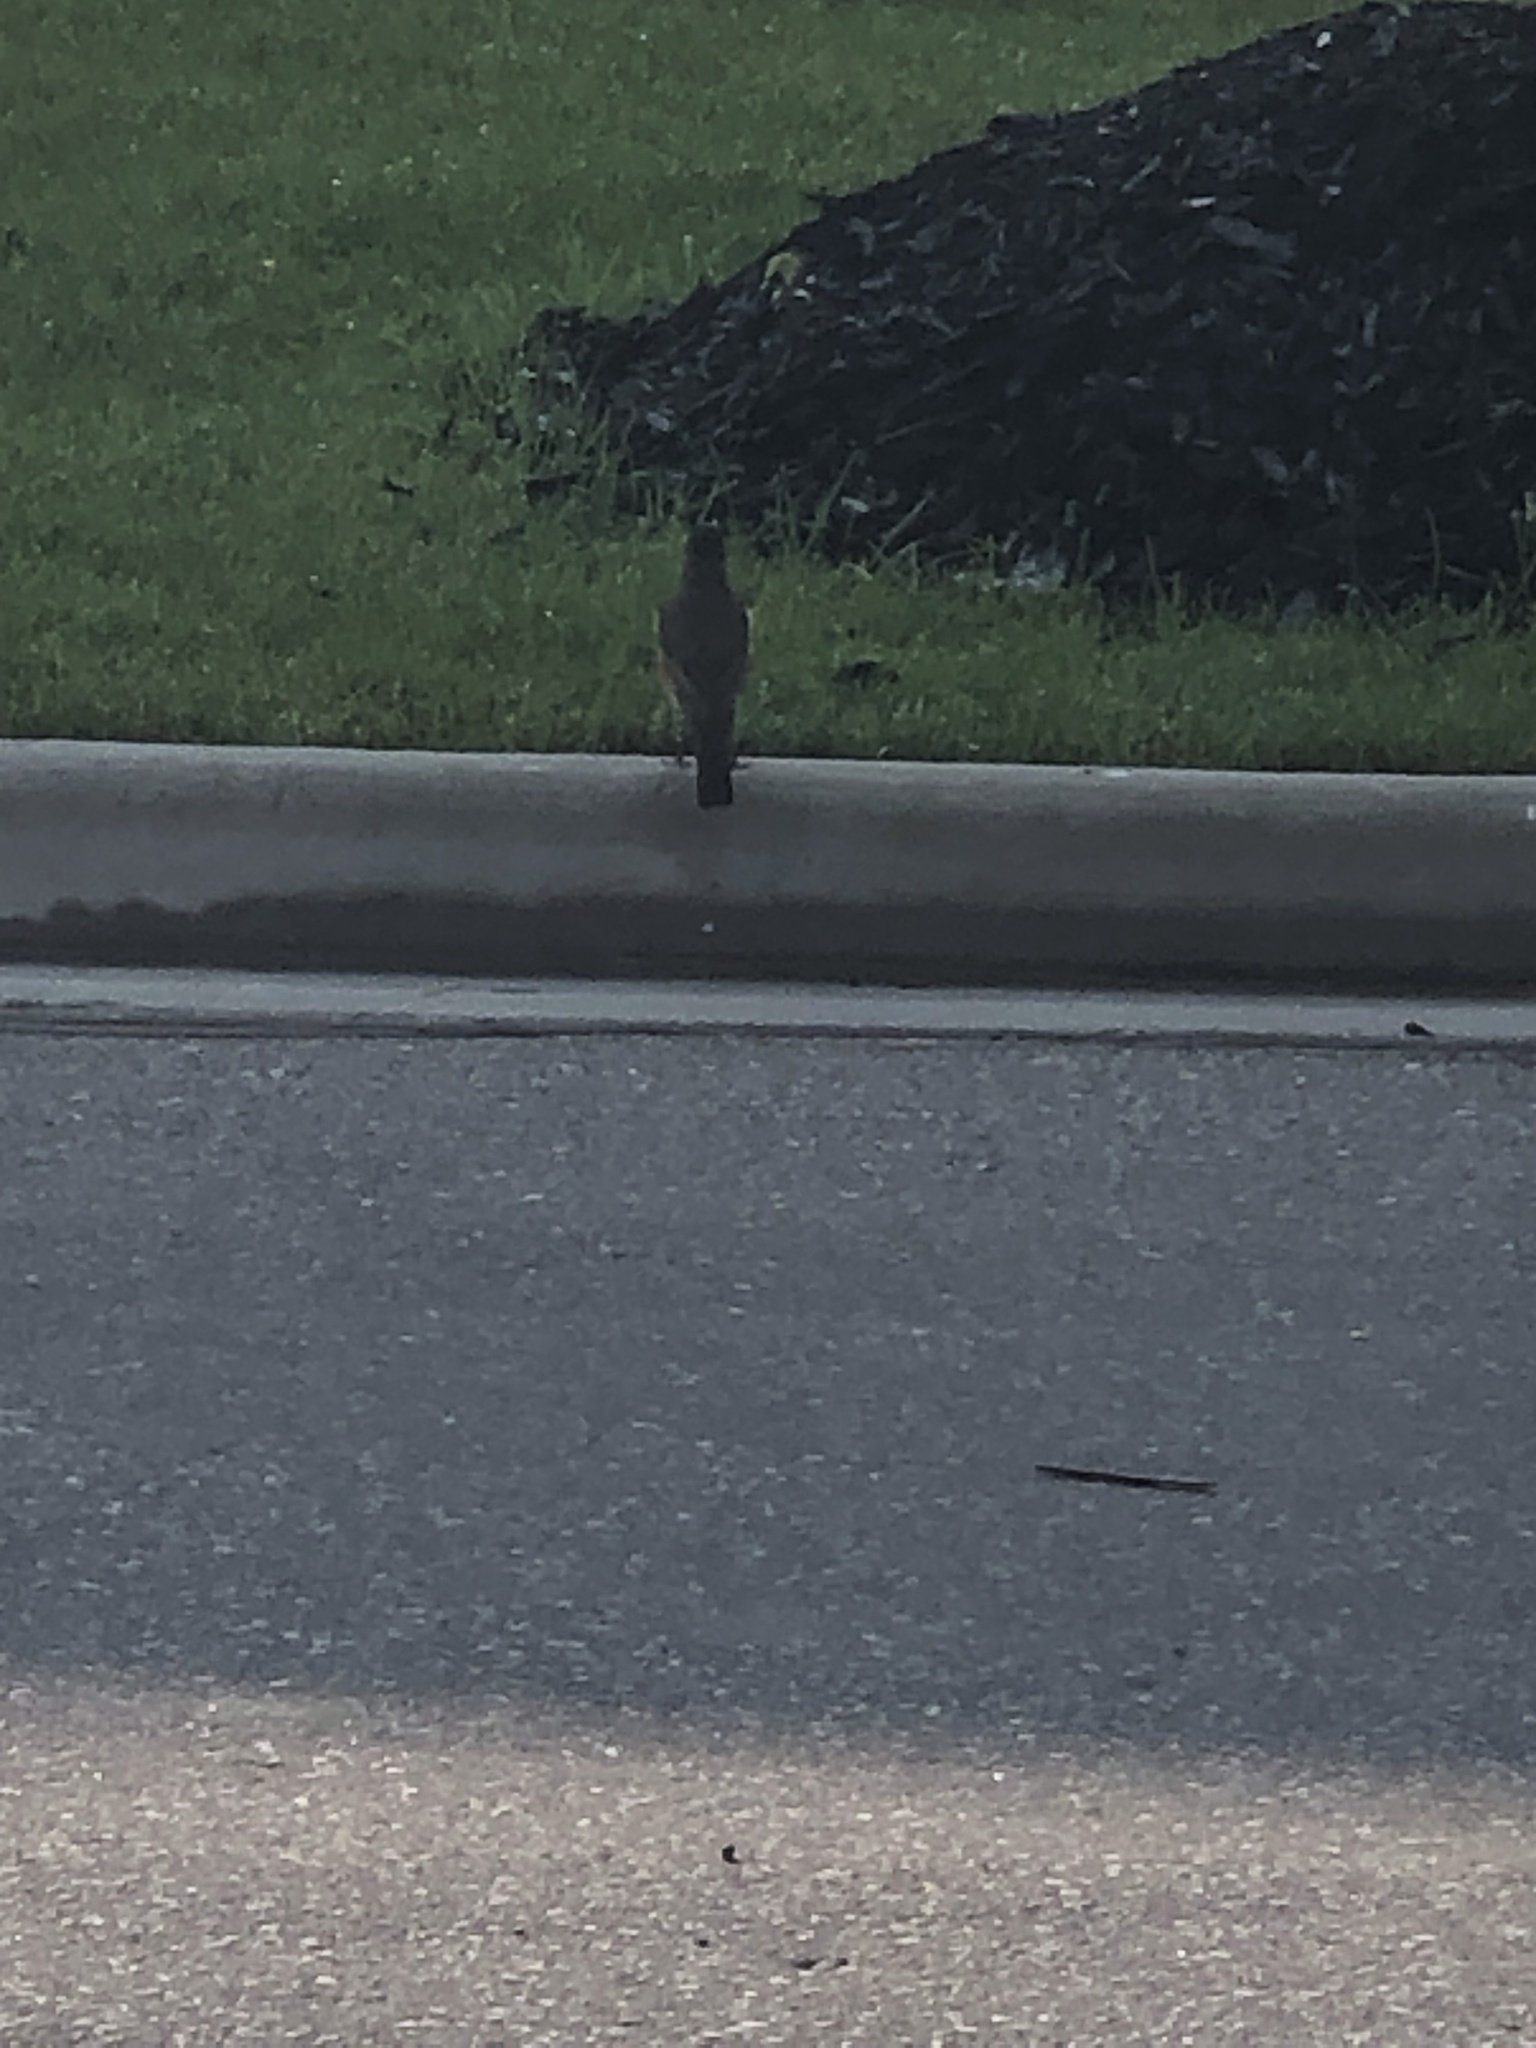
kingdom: Animalia
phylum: Chordata
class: Aves
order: Passeriformes
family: Turdidae
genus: Turdus
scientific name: Turdus migratorius
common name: American robin
